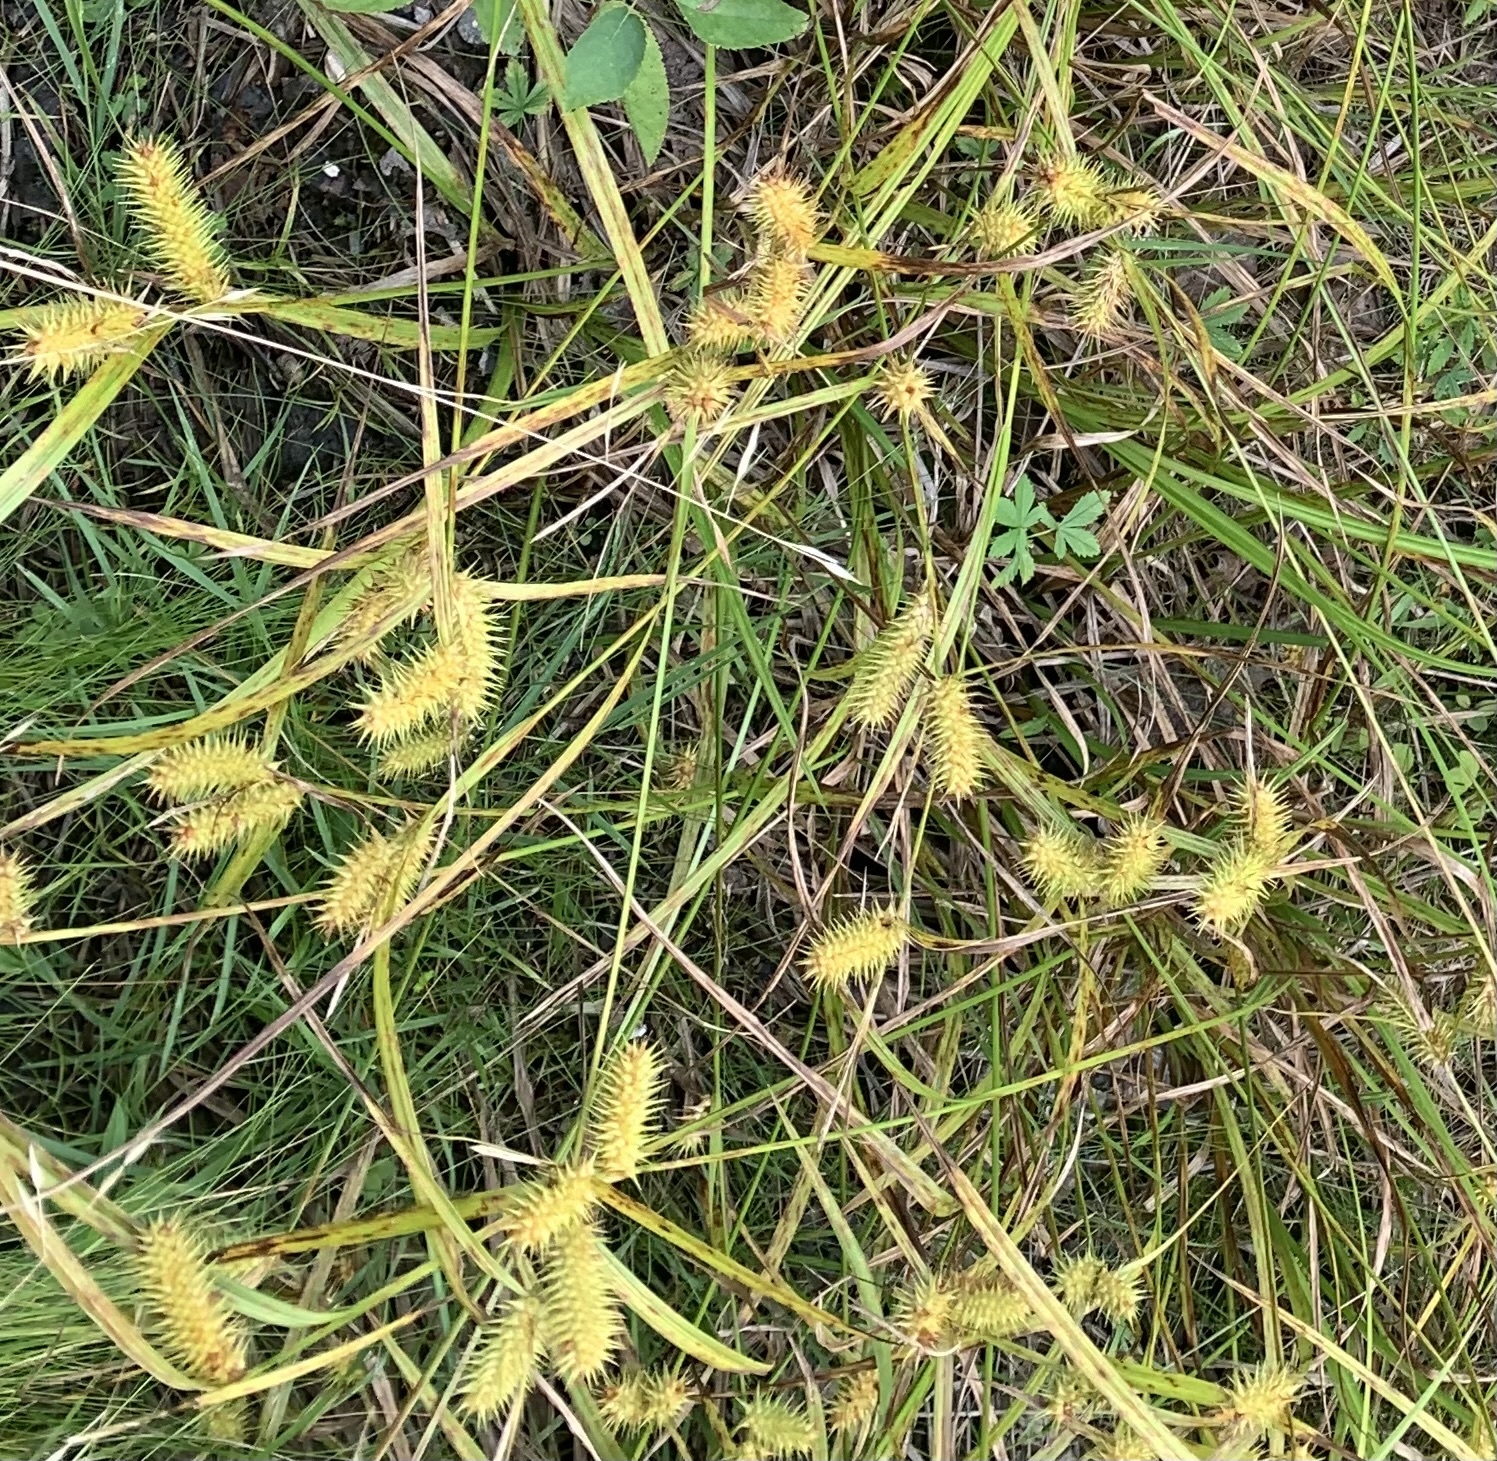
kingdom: Plantae
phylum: Tracheophyta
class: Liliopsida
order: Poales
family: Cyperaceae
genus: Carex
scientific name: Carex lurida
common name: Sallow sedge
